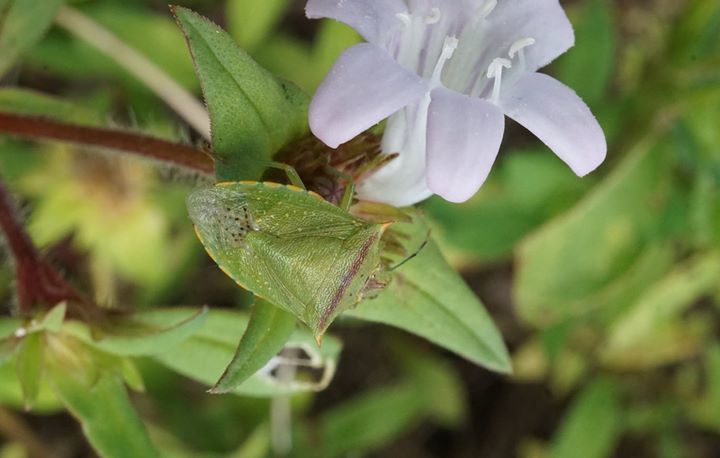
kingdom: Animalia
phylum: Arthropoda
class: Insecta
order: Hemiptera
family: Pentatomidae
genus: Thyanta
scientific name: Thyanta perditor
